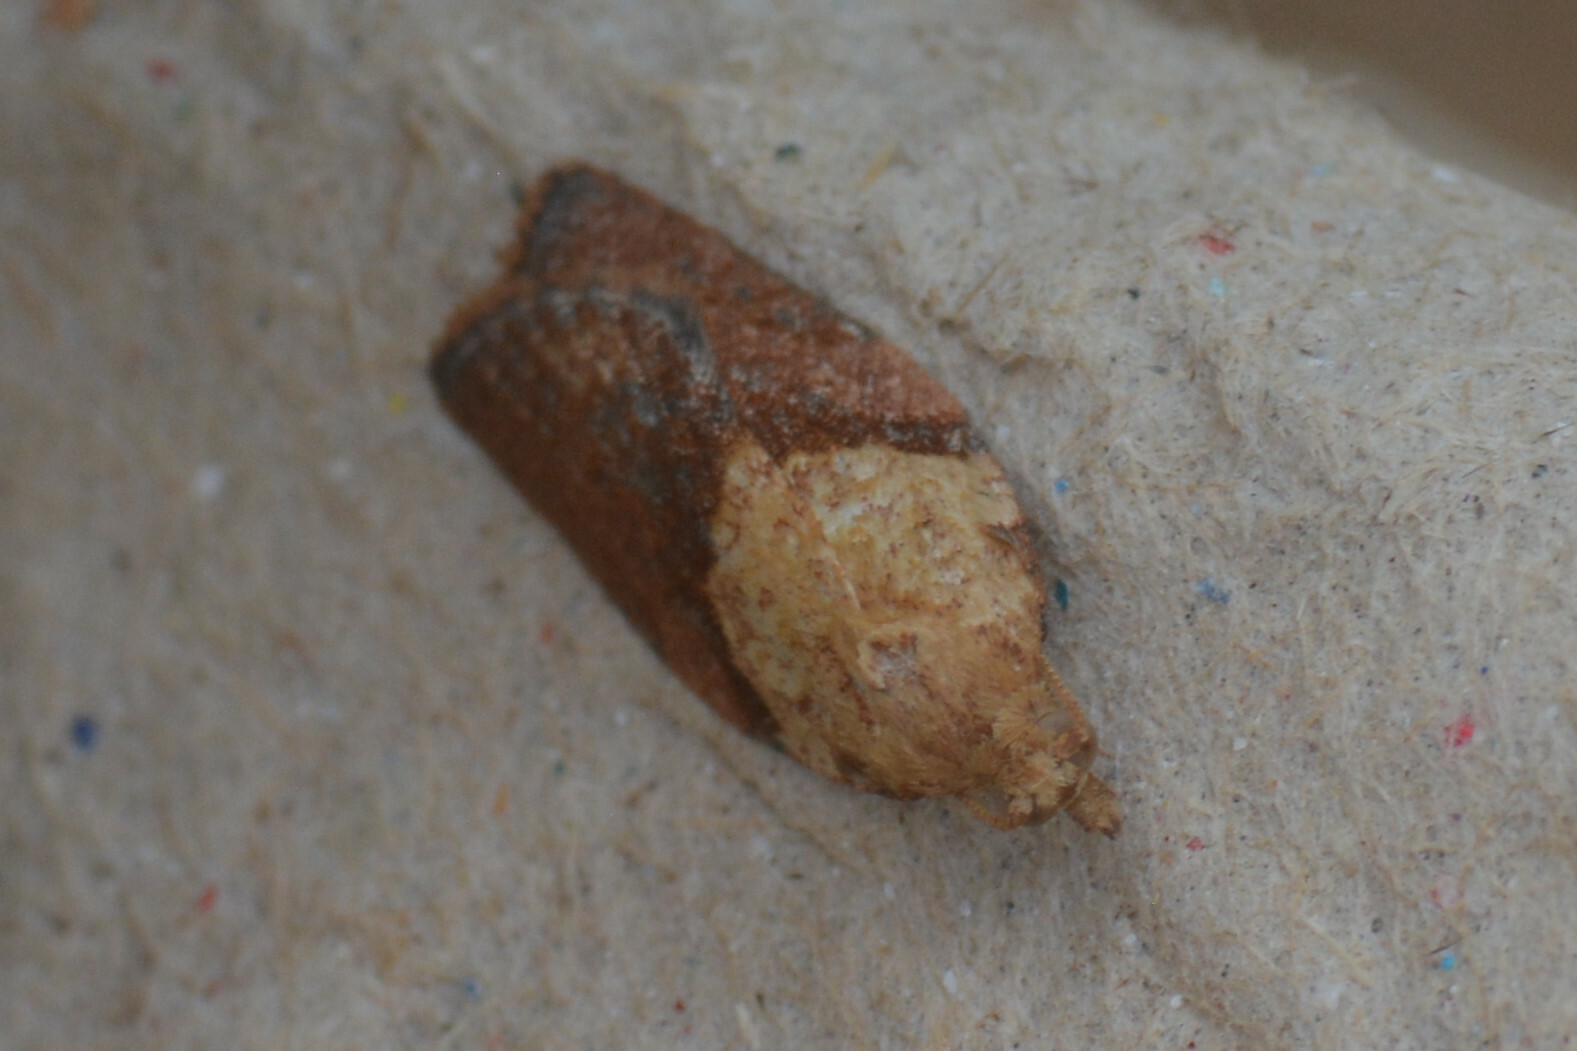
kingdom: Animalia
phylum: Arthropoda
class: Insecta
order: Lepidoptera
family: Tortricidae
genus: Epiphyas
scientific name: Epiphyas postvittana
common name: Light brown apple moth
